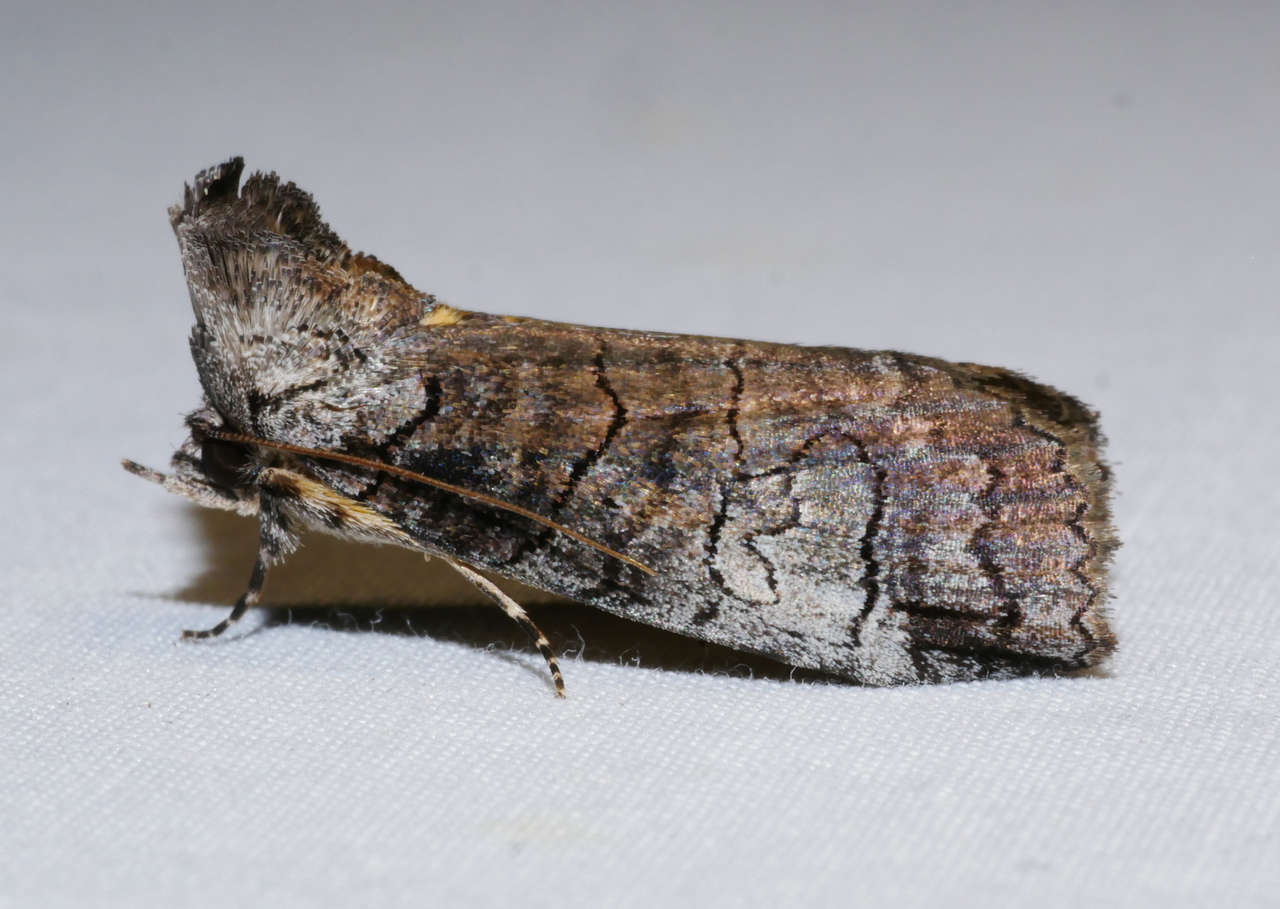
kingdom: Animalia
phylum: Arthropoda
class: Insecta
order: Lepidoptera
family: Erebidae
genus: Prorocopis
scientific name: Prorocopis euxantha
